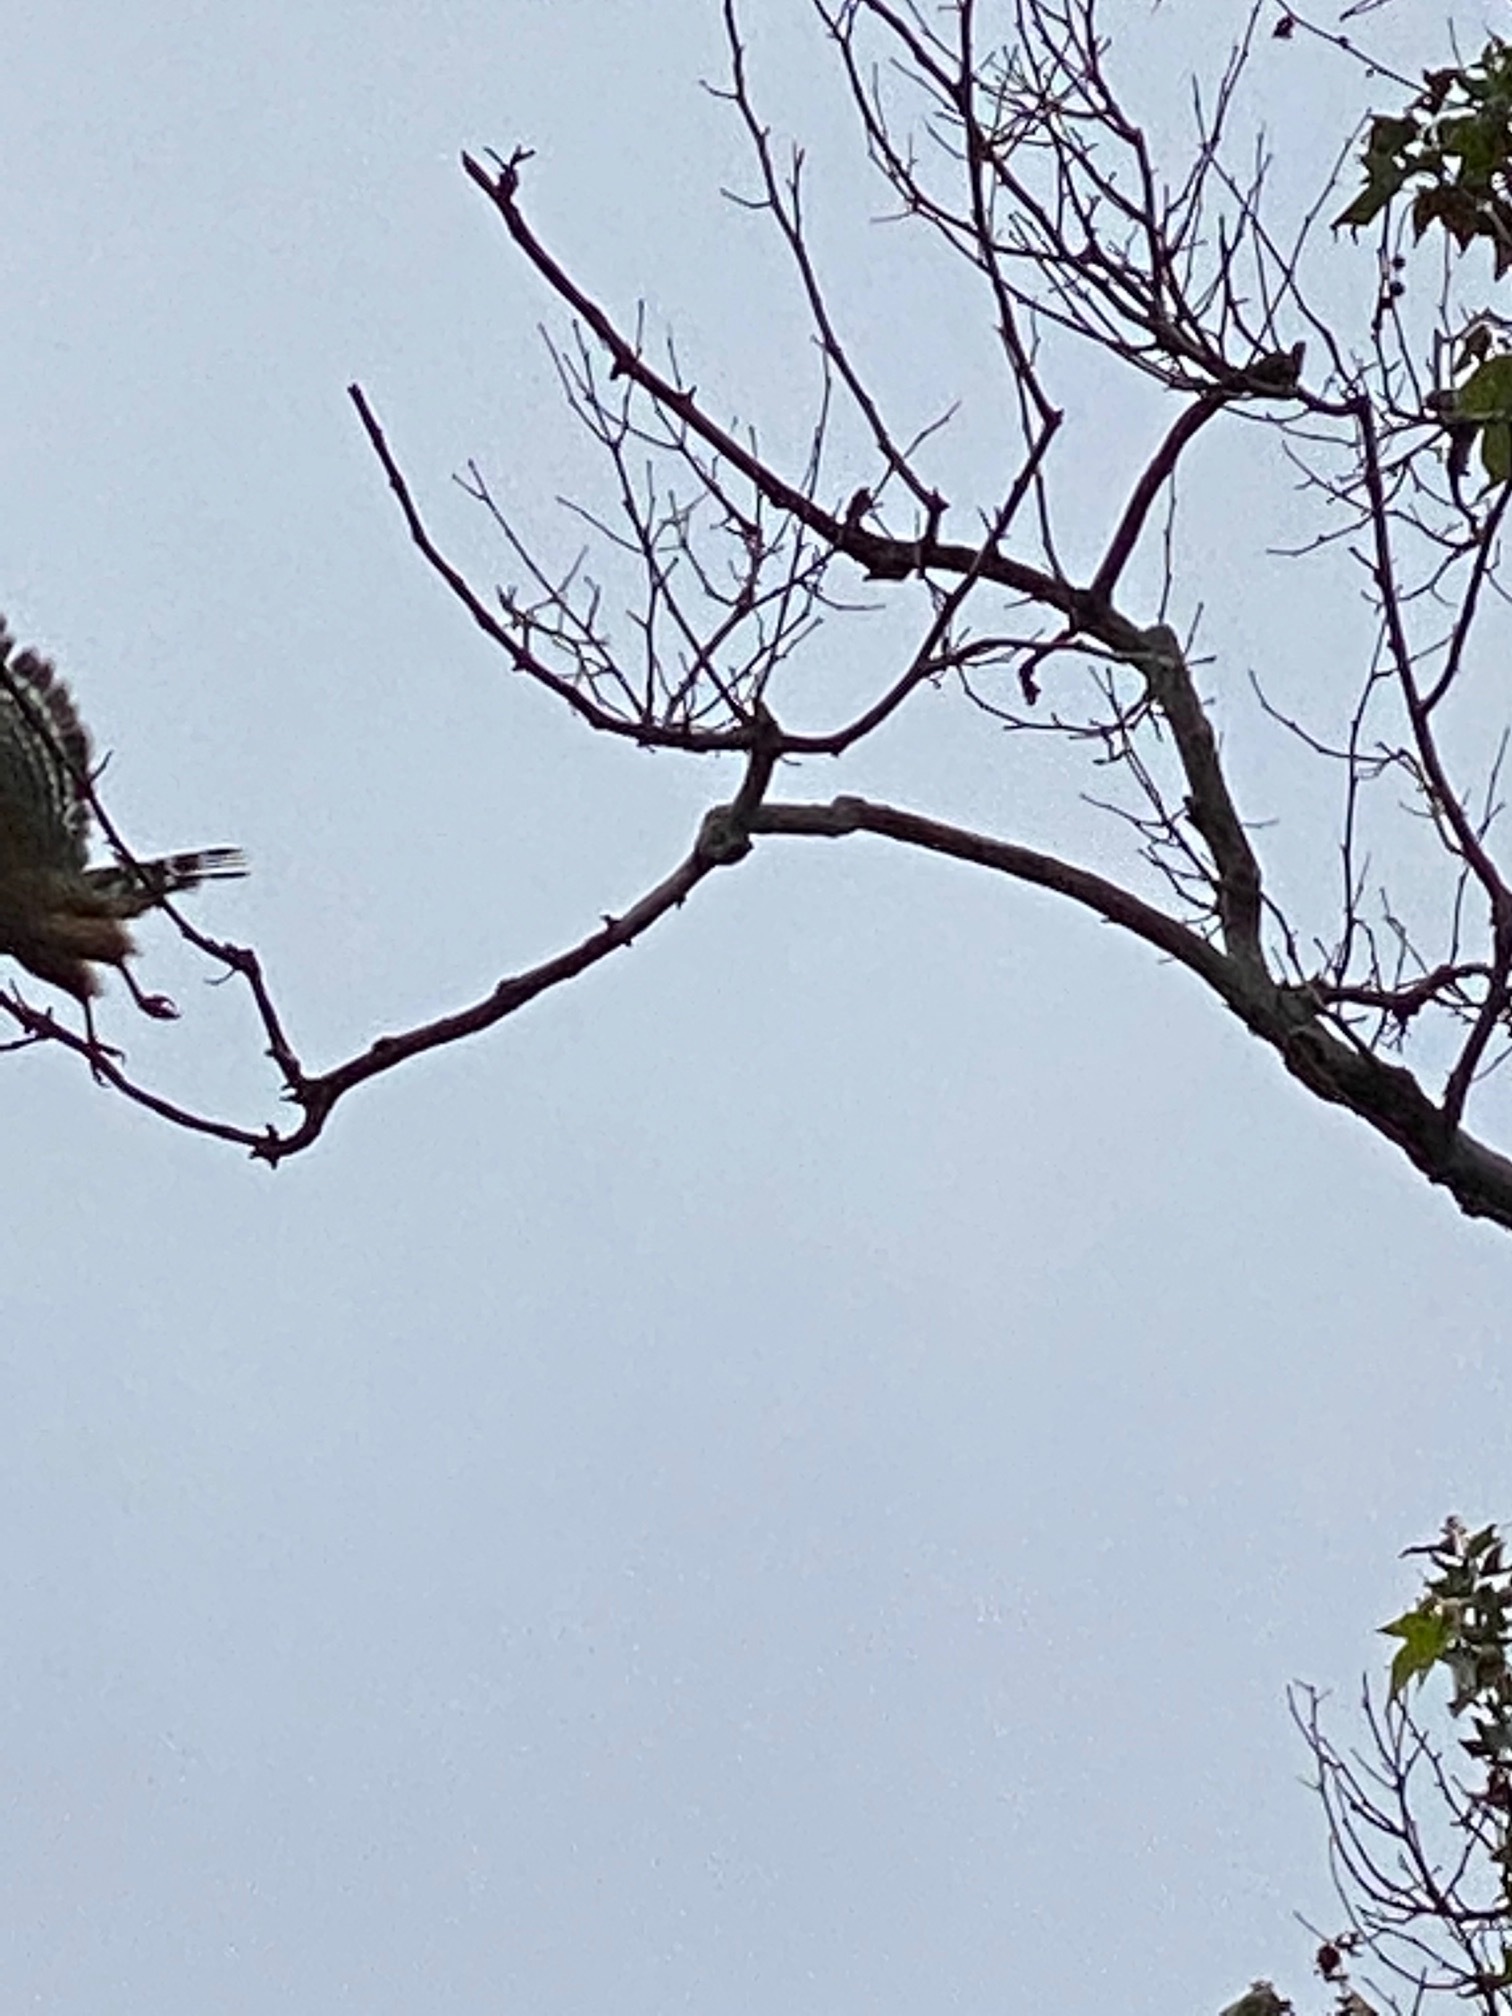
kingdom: Animalia
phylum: Chordata
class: Aves
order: Accipitriformes
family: Accipitridae
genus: Buteo
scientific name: Buteo lineatus
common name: Red-shouldered hawk
